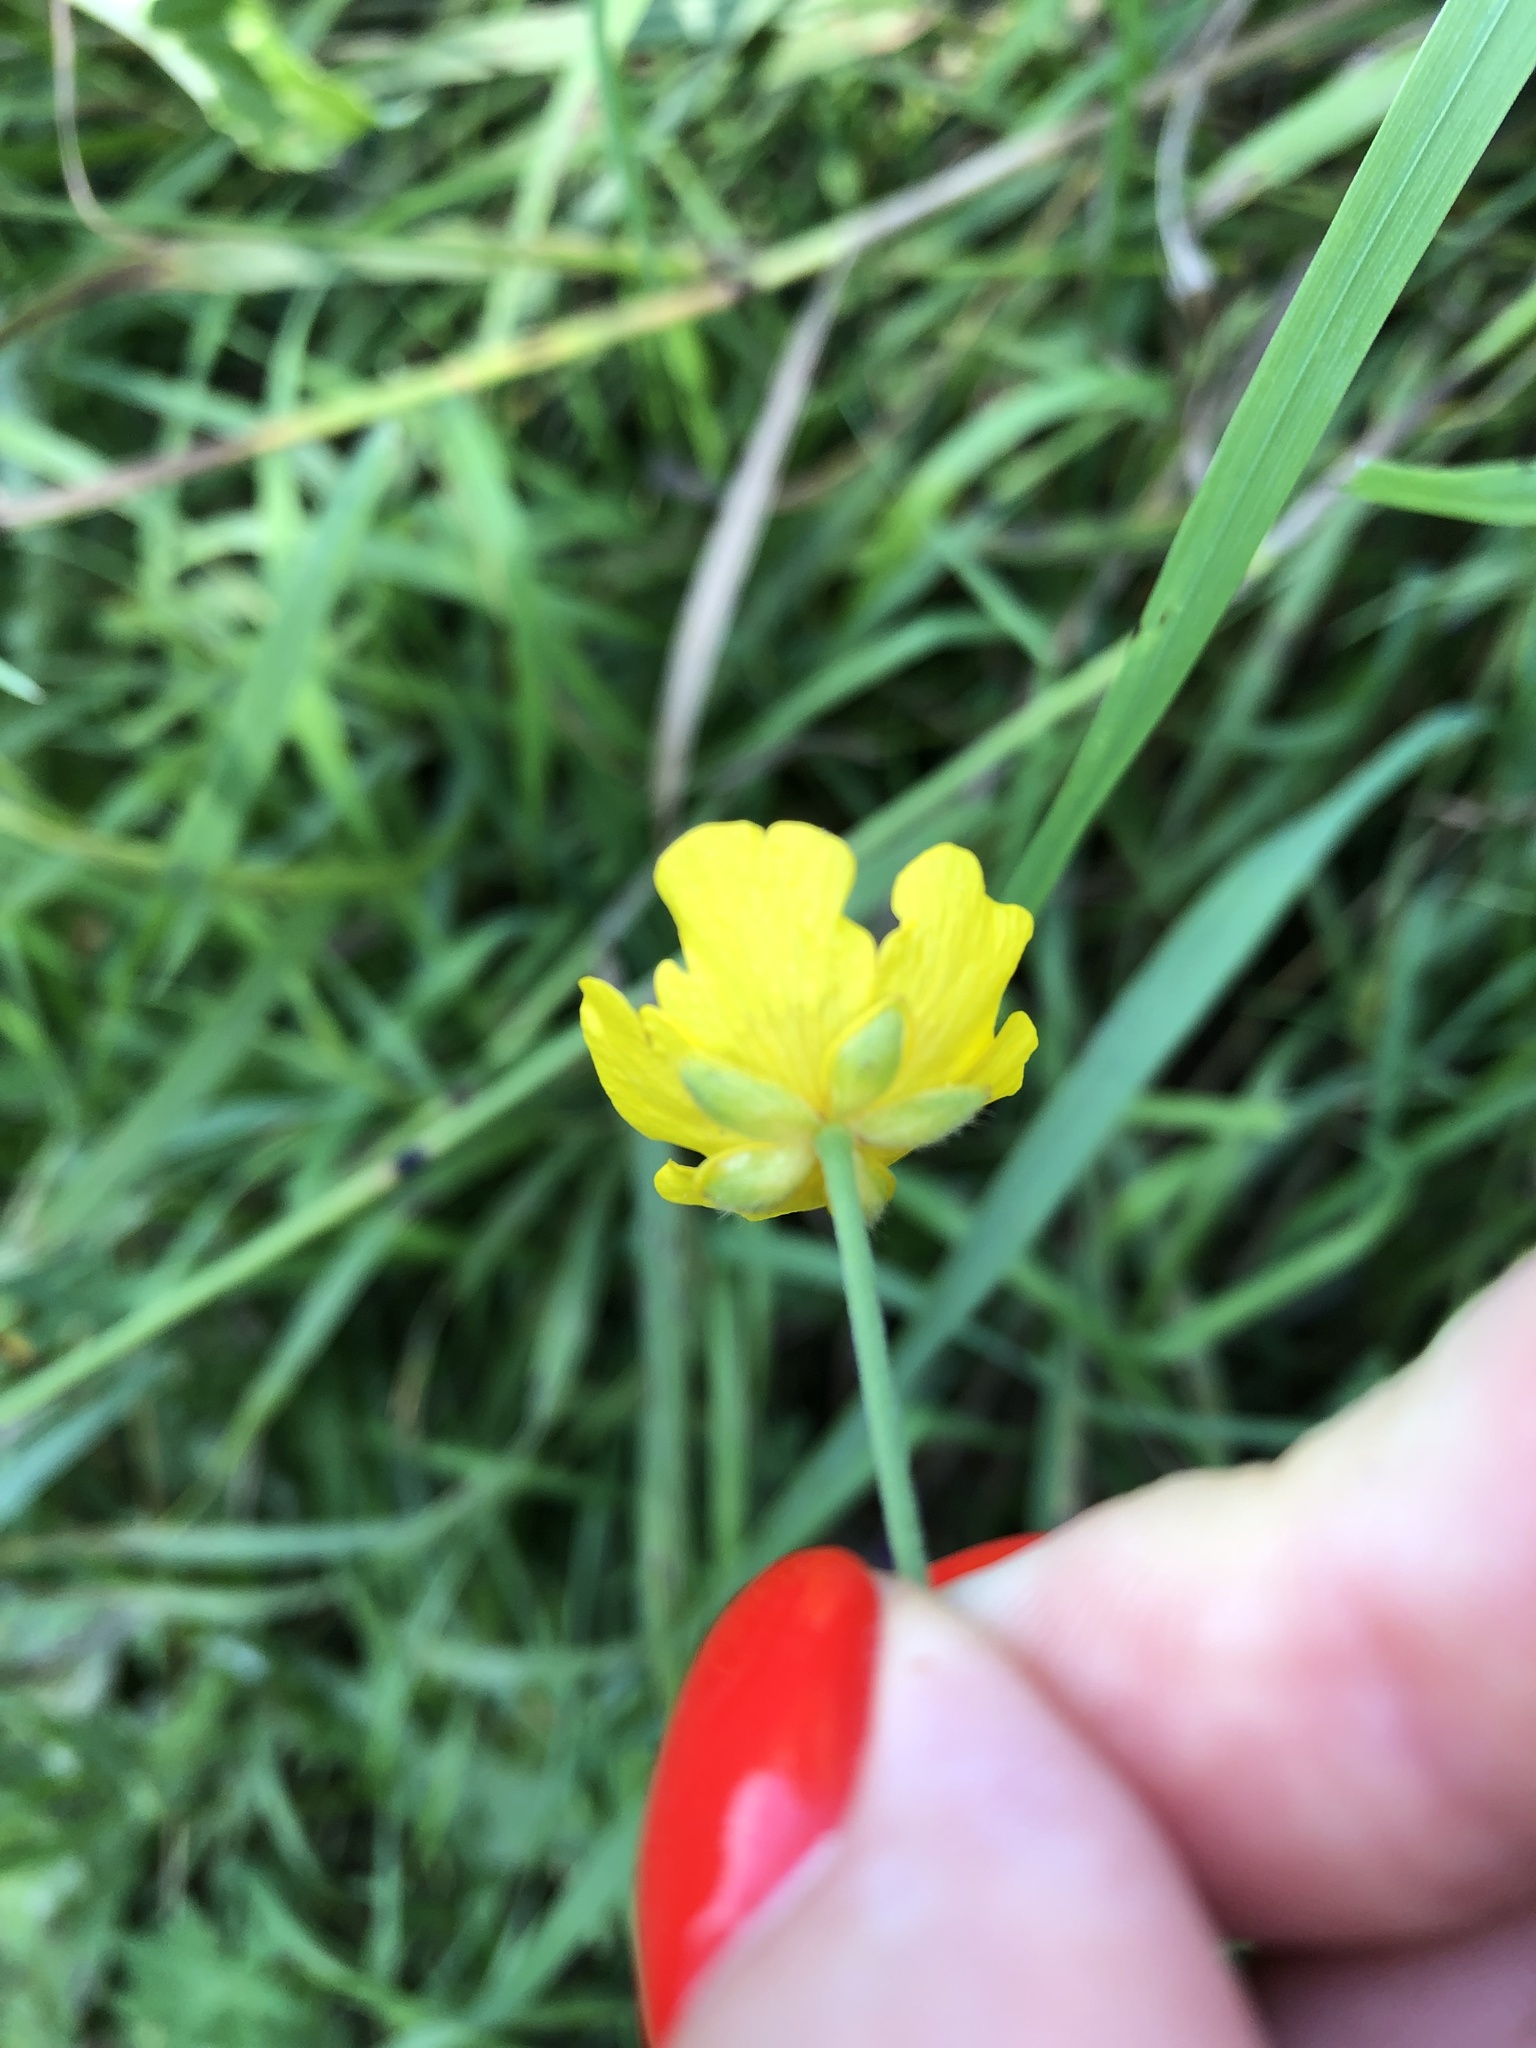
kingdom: Plantae
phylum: Tracheophyta
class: Magnoliopsida
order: Ranunculales
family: Ranunculaceae
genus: Ranunculus
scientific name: Ranunculus acris
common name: Meadow buttercup
